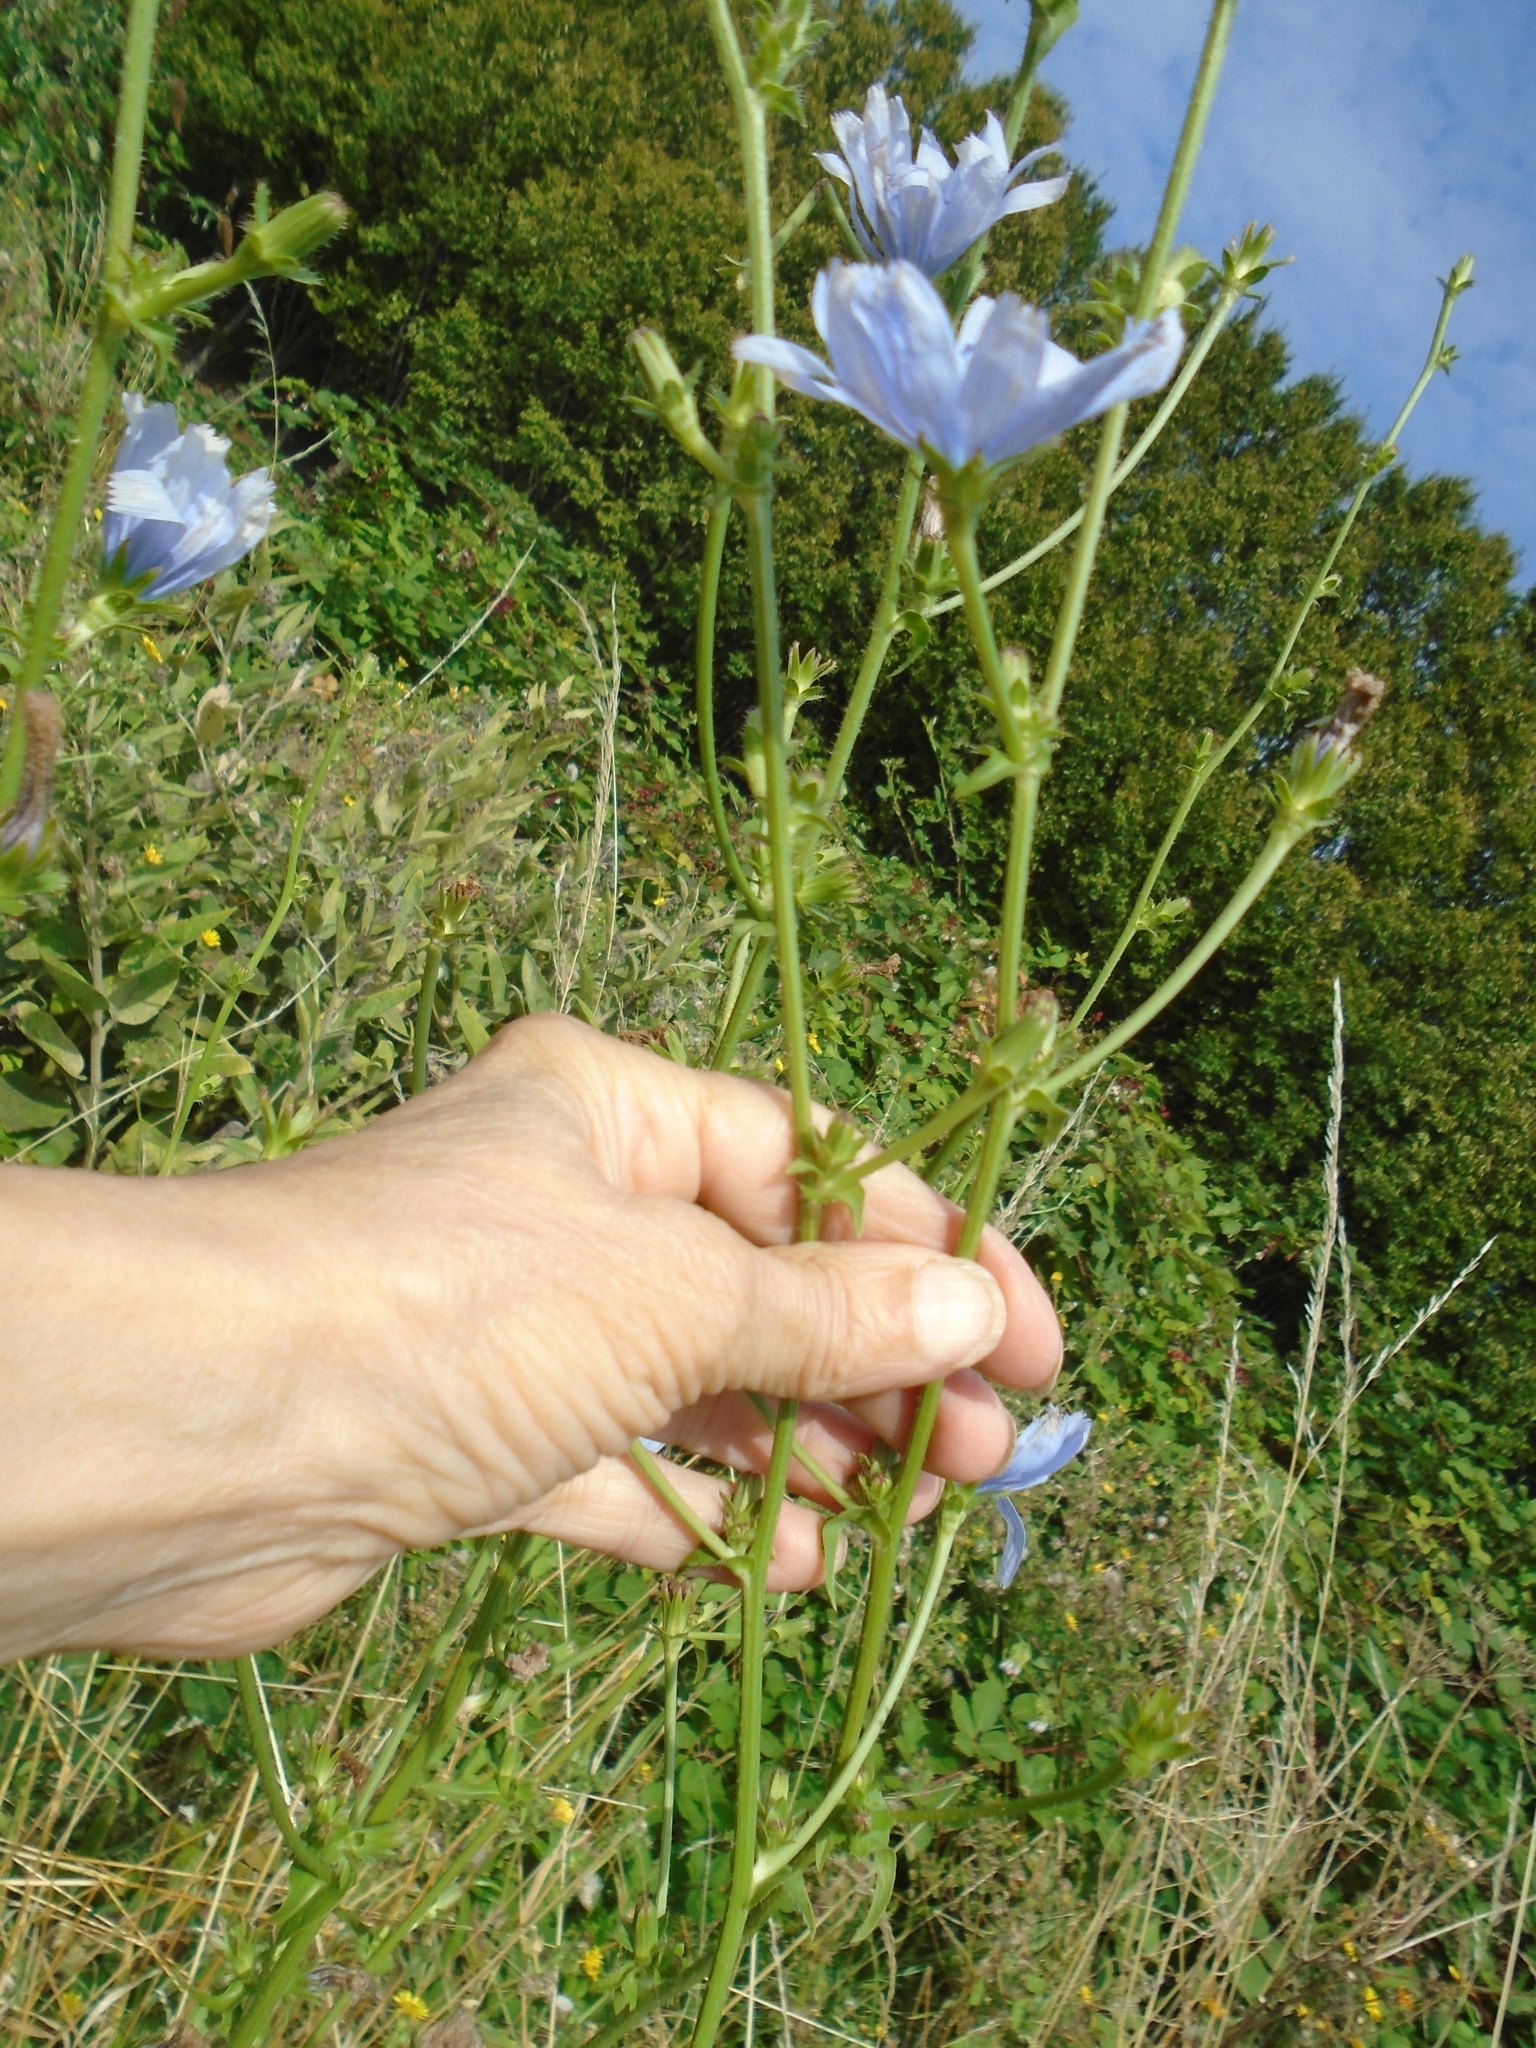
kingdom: Plantae
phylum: Tracheophyta
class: Magnoliopsida
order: Asterales
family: Asteraceae
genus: Cichorium
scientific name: Cichorium intybus
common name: Chicory
